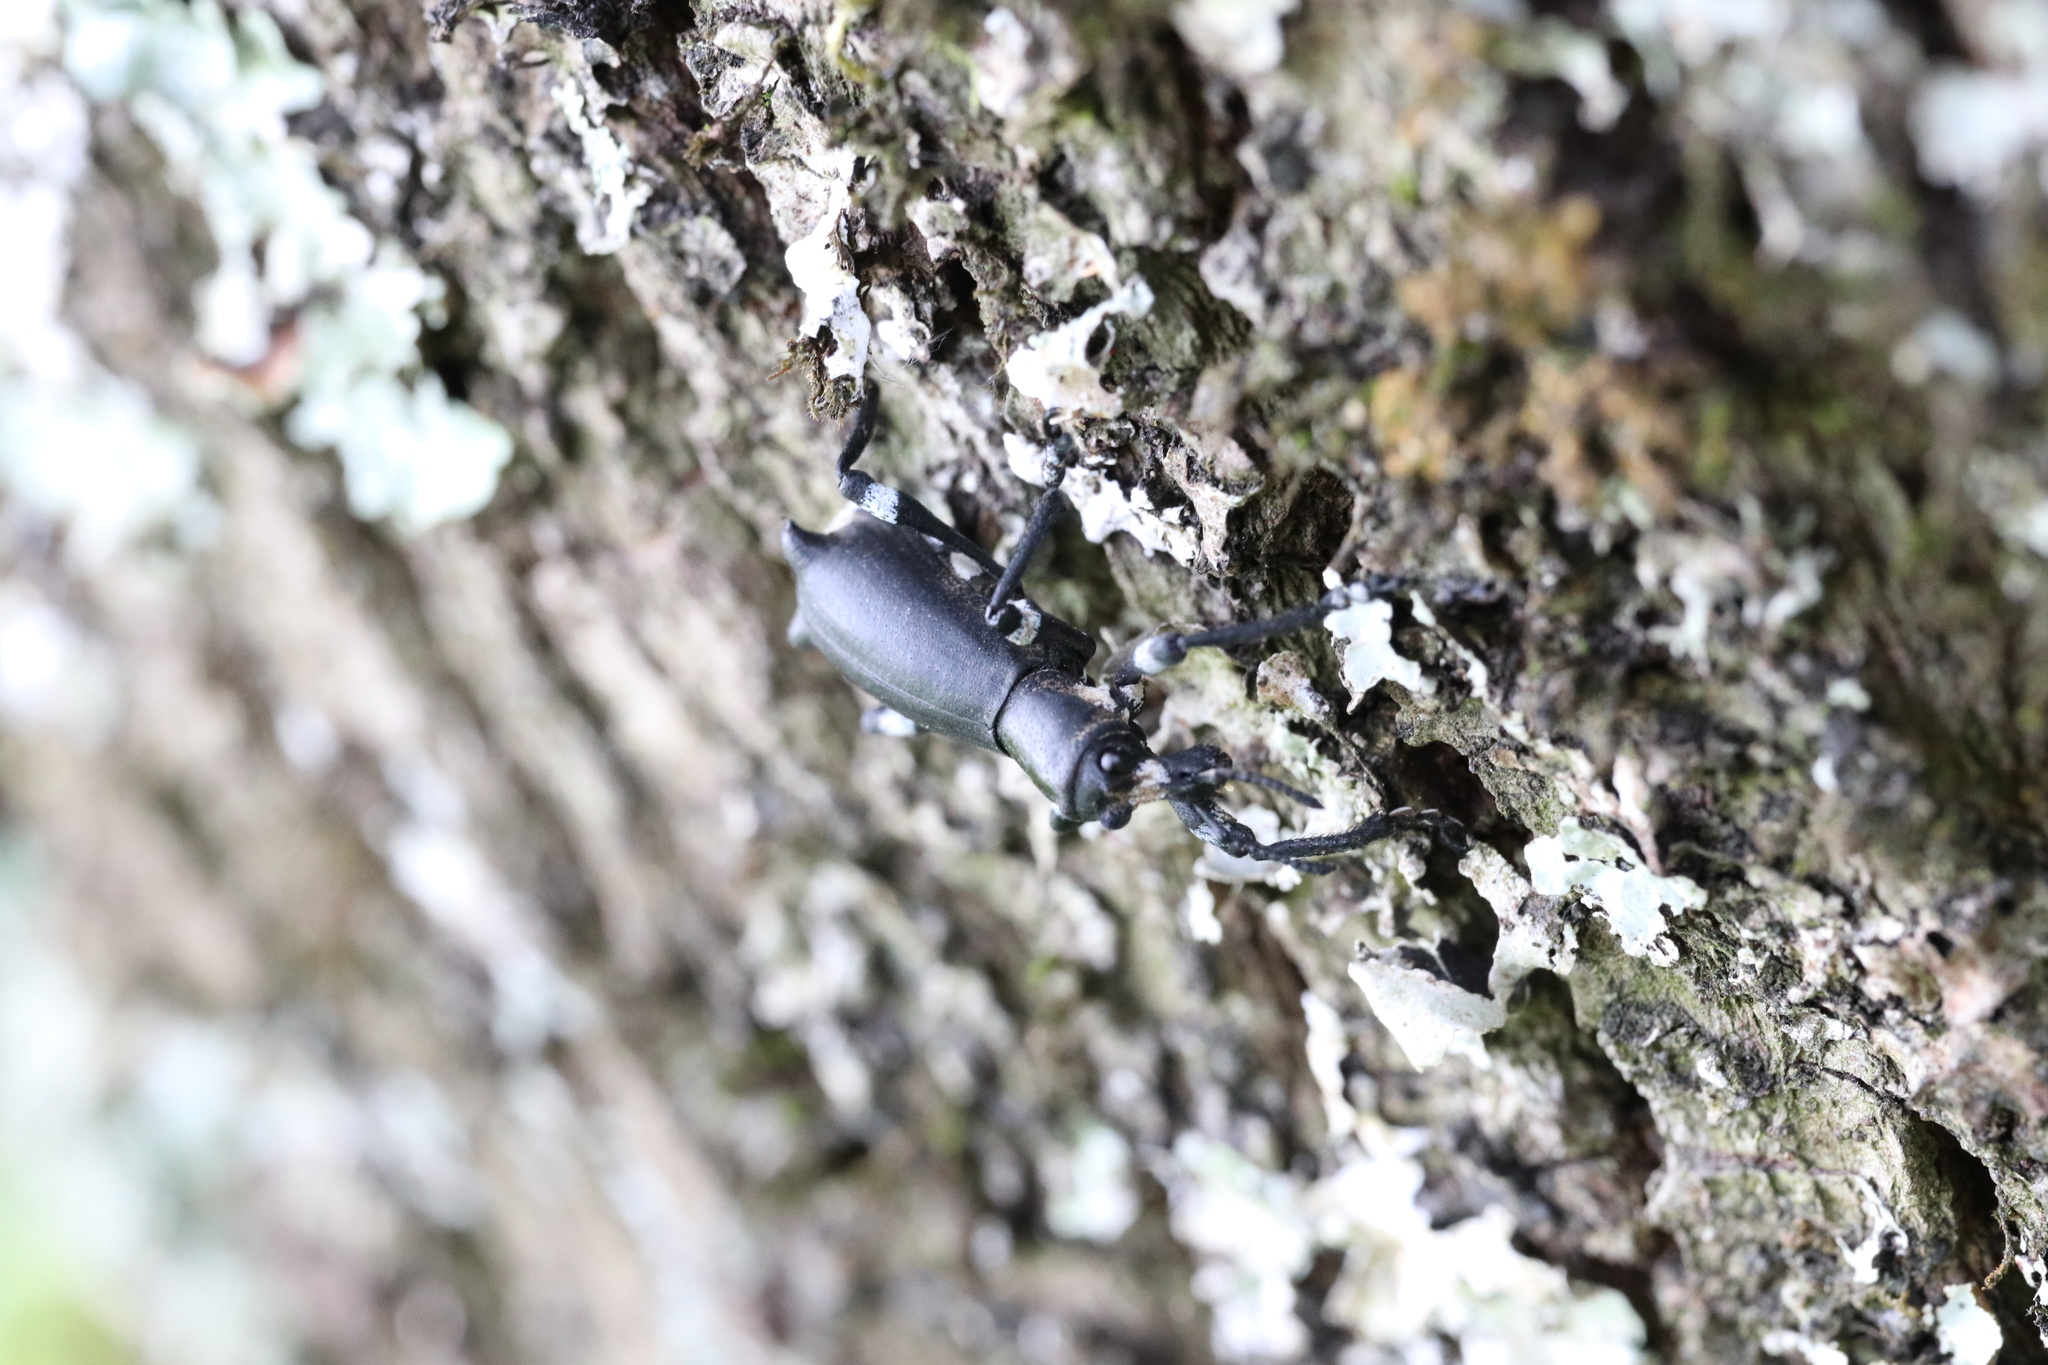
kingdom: Animalia
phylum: Arthropoda
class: Insecta
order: Coleoptera
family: Curculionidae
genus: Aegorhinus
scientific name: Aegorhinus
